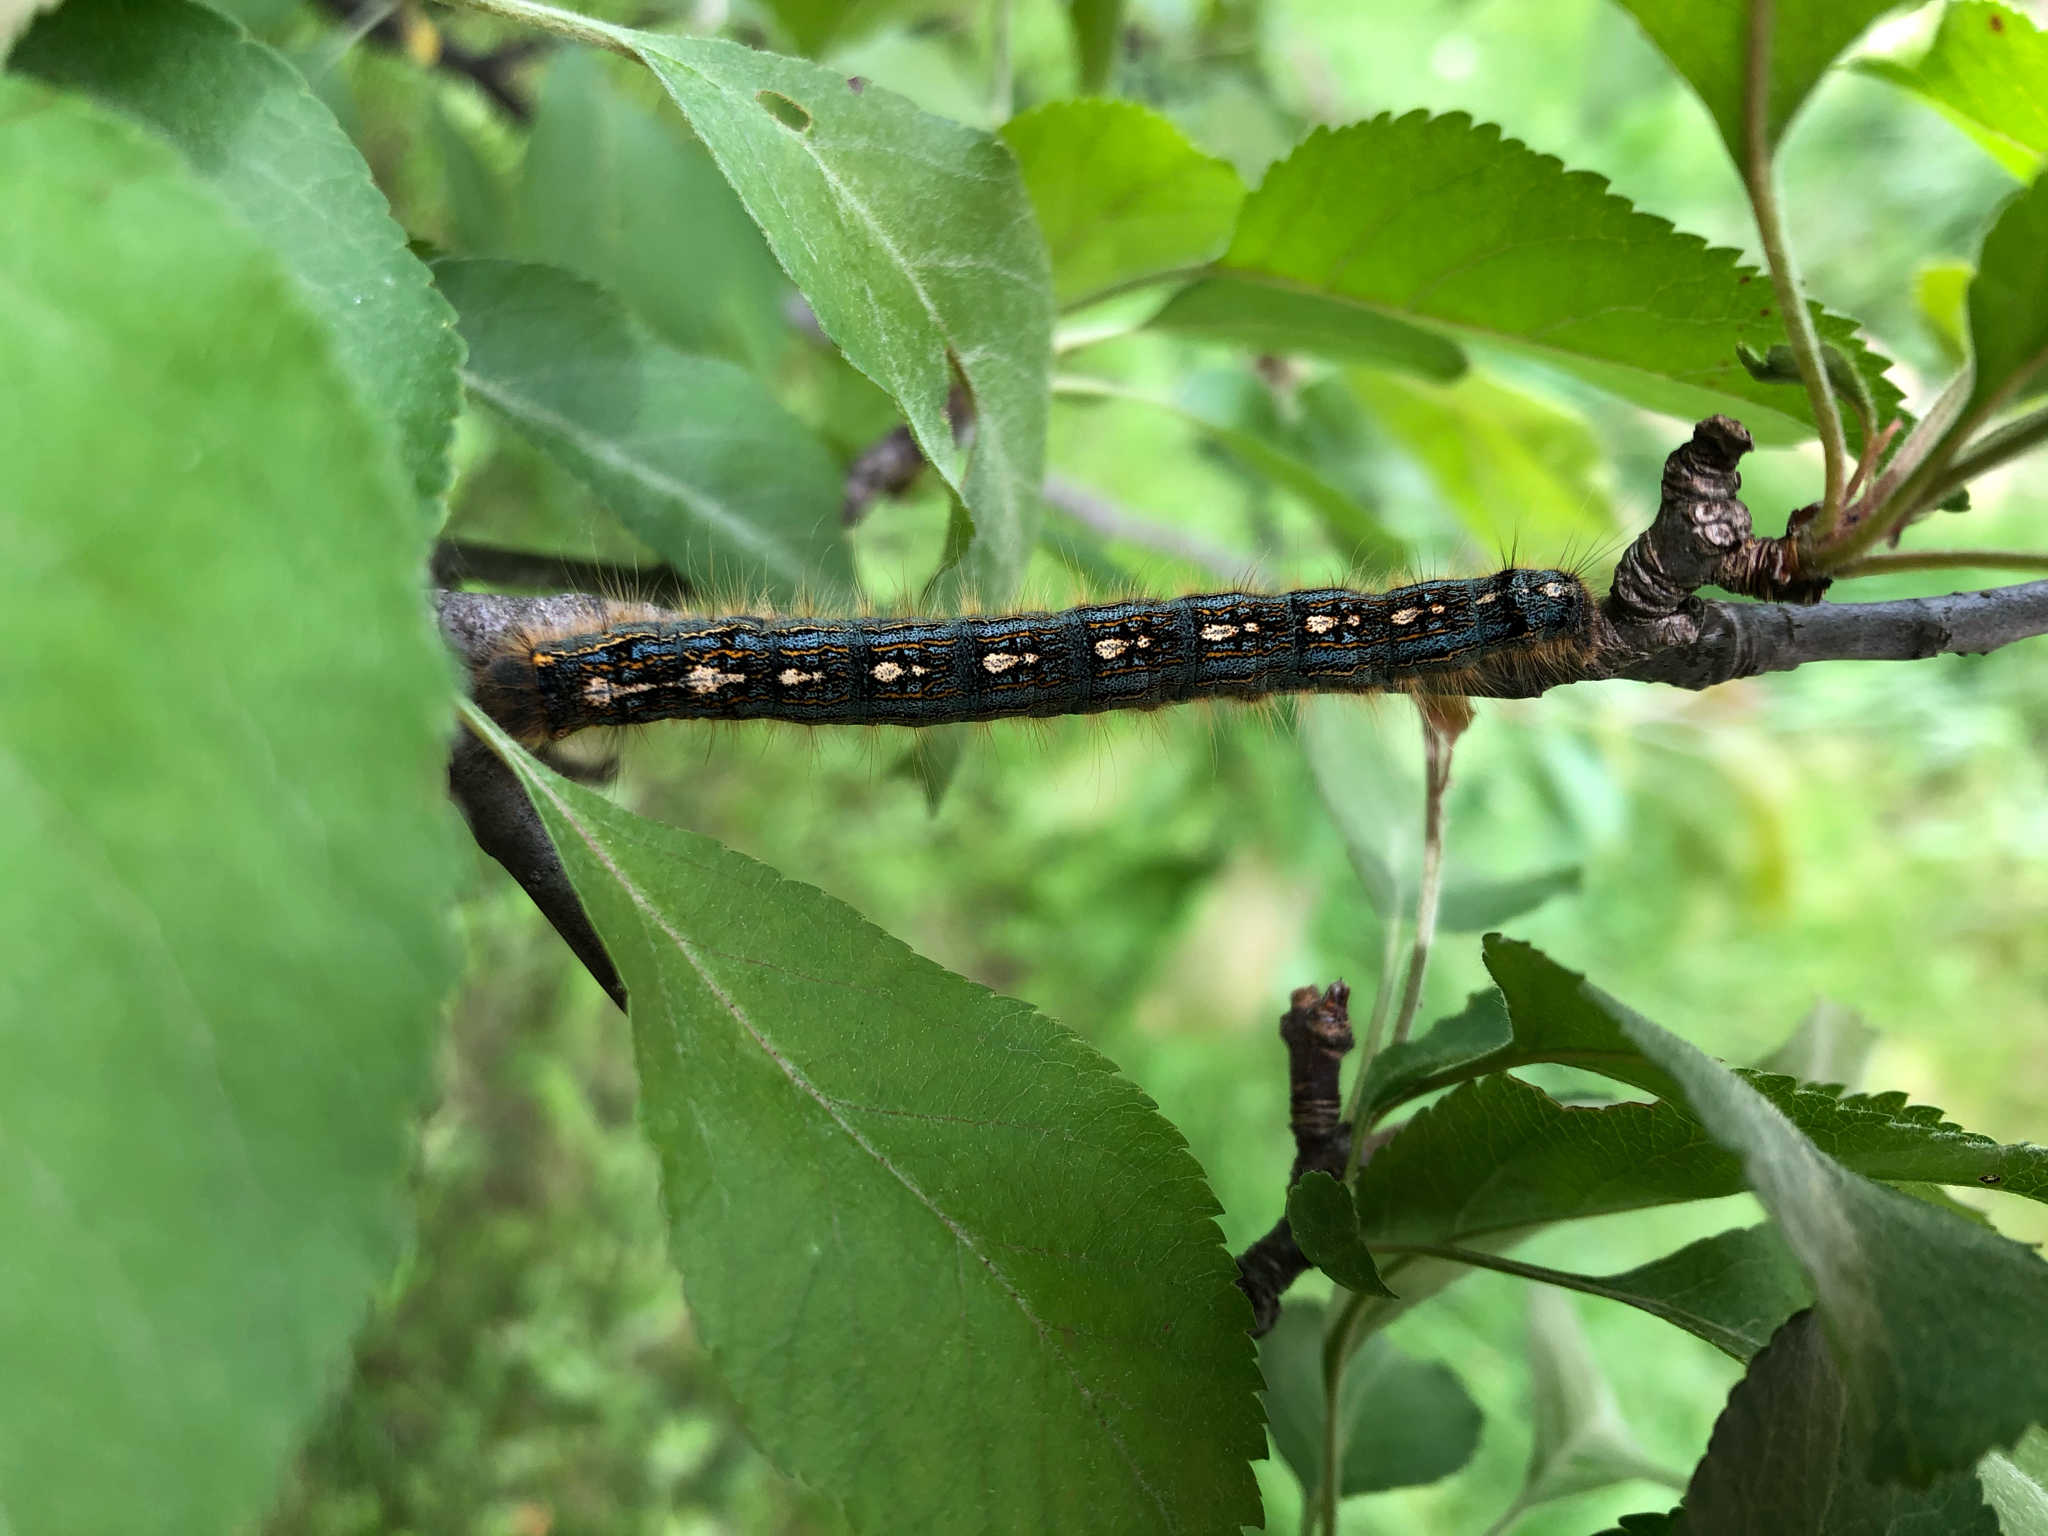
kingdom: Animalia
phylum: Arthropoda
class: Insecta
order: Lepidoptera
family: Lasiocampidae
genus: Malacosoma
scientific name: Malacosoma disstria
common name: Forest tent caterpillar
